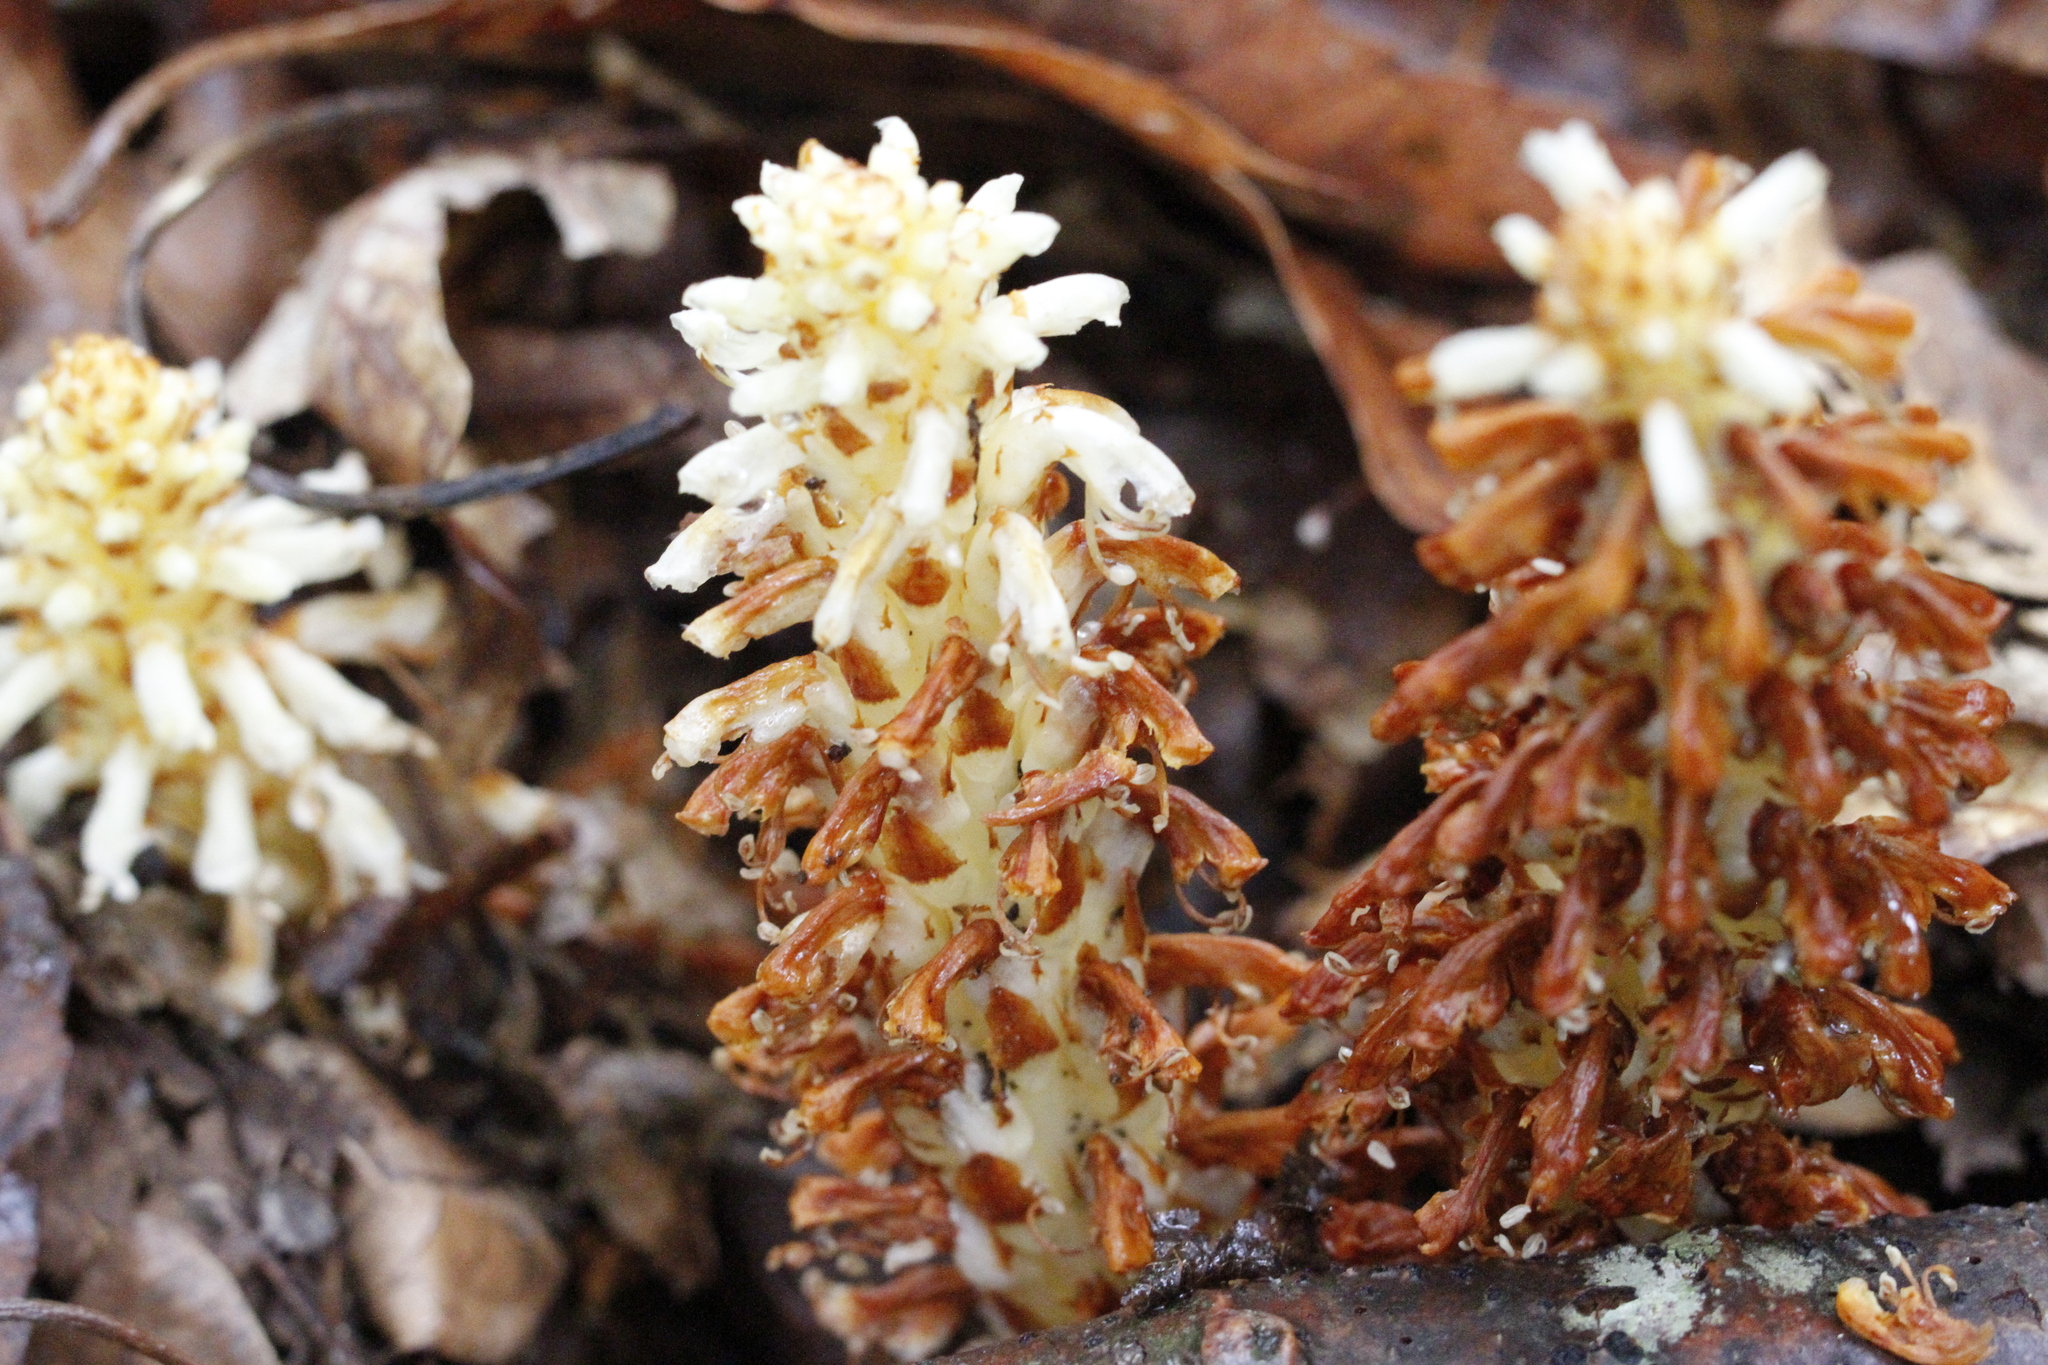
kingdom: Plantae
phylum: Tracheophyta
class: Magnoliopsida
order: Lamiales
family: Orobanchaceae
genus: Conopholis
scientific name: Conopholis americana
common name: American cancer-root
